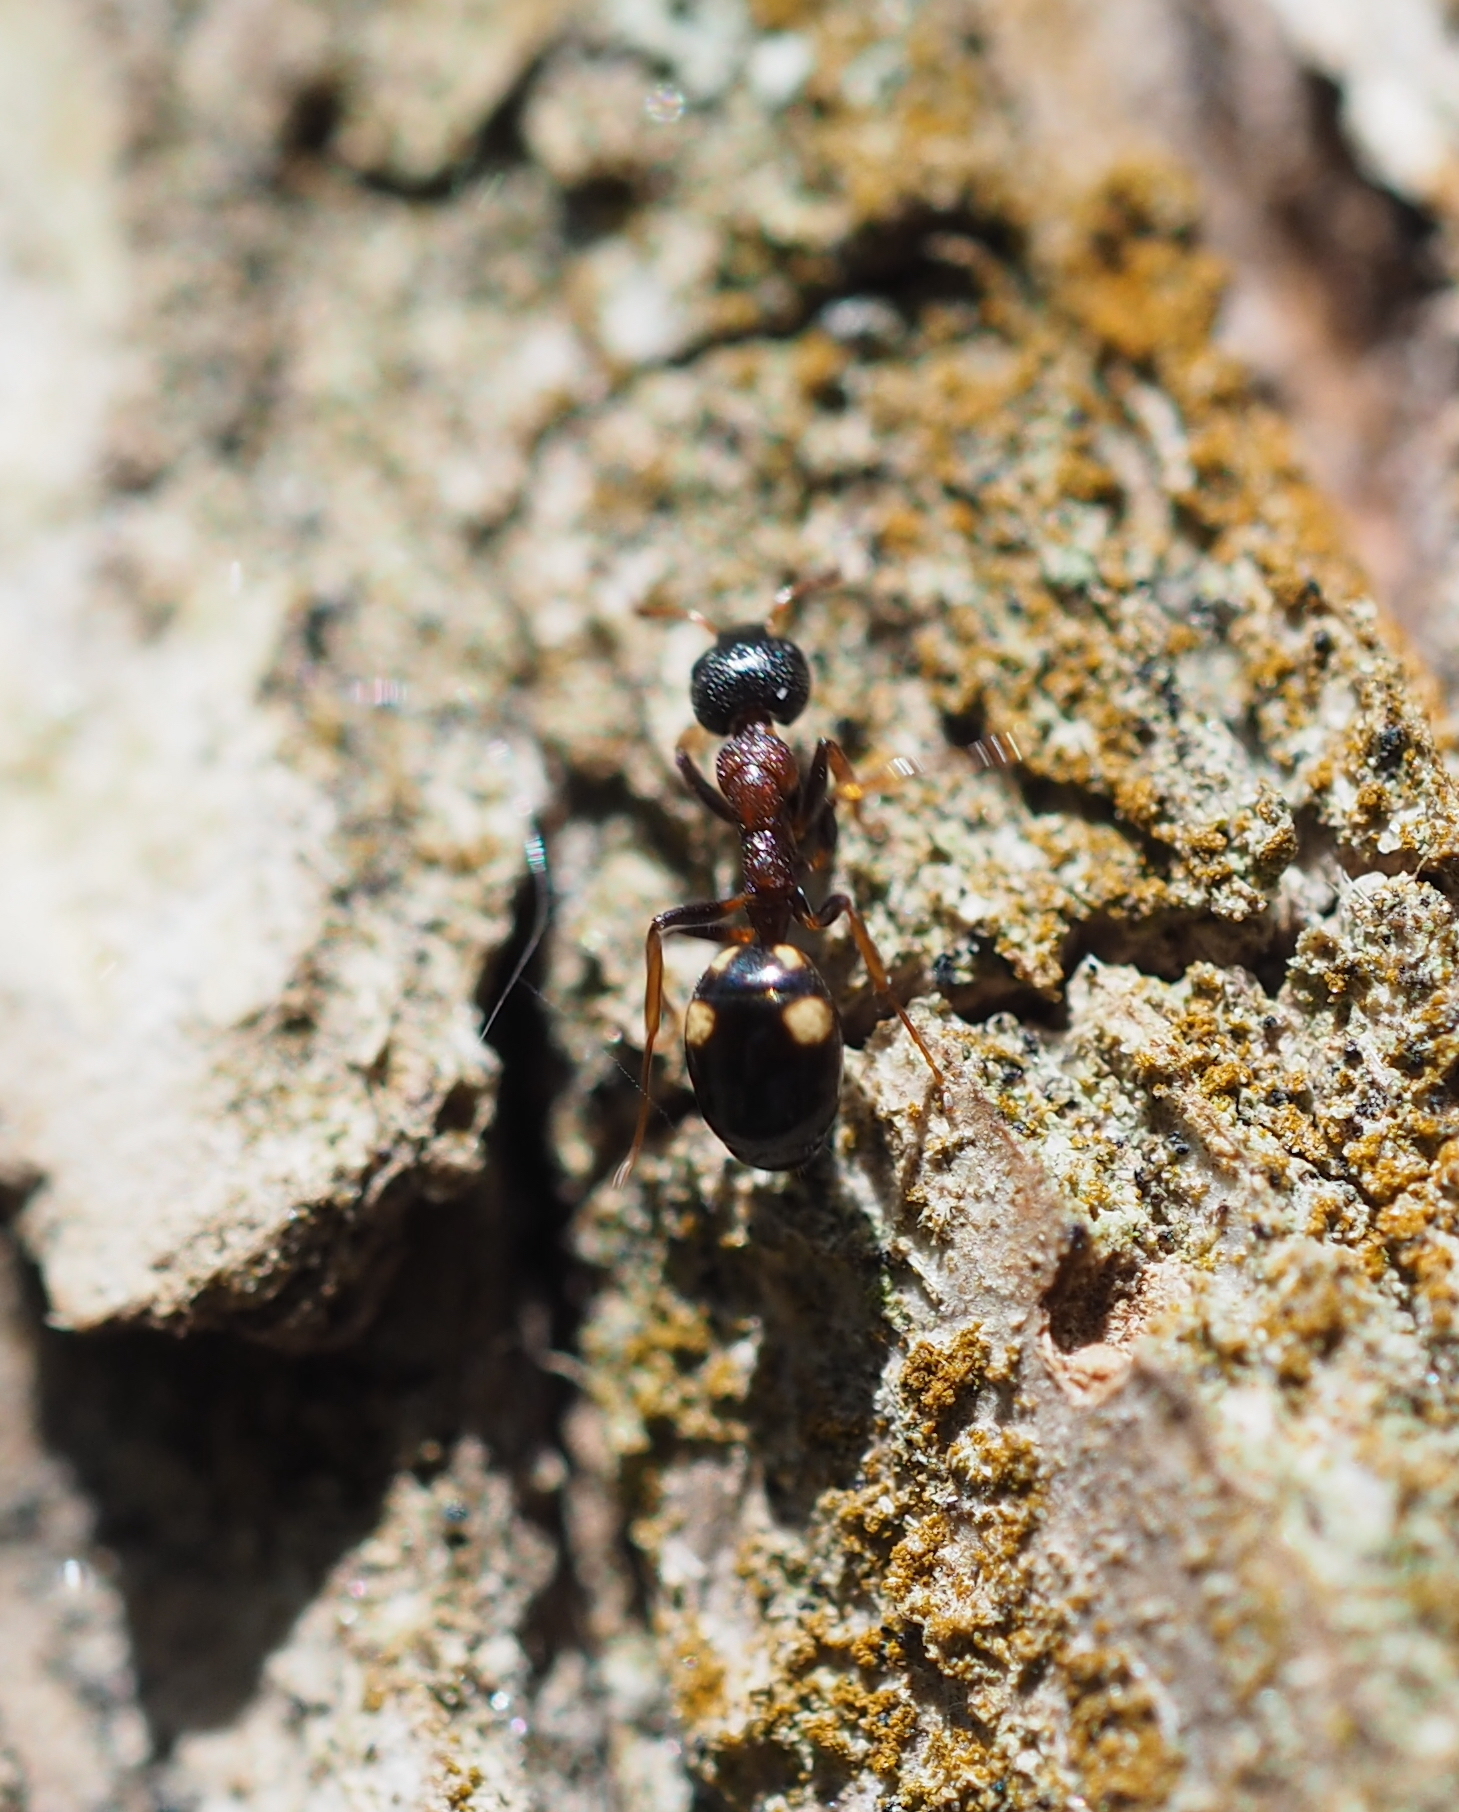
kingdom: Animalia
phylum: Arthropoda
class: Insecta
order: Hymenoptera
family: Formicidae
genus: Dolichoderus
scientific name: Dolichoderus quadripunctatus
